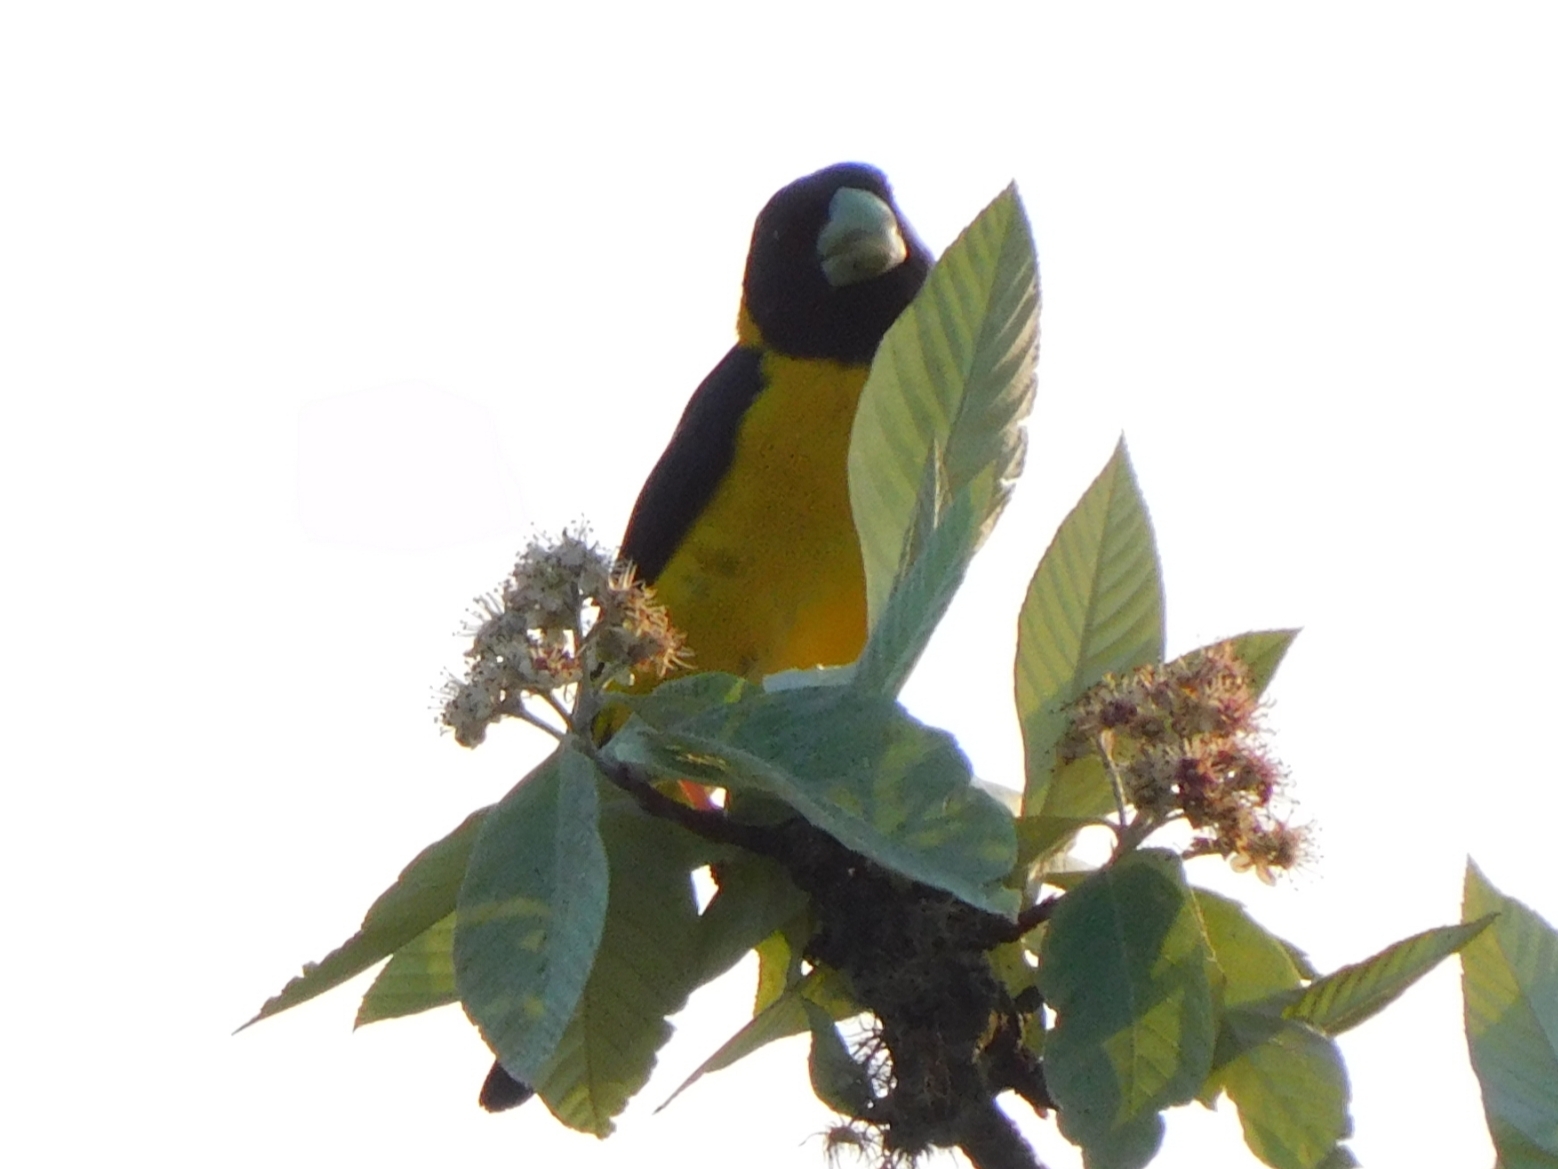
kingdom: Animalia
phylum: Chordata
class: Aves
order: Passeriformes
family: Fringillidae
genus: Mycerobas
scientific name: Mycerobas icterioides
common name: Black-and-yellow grosbeak
